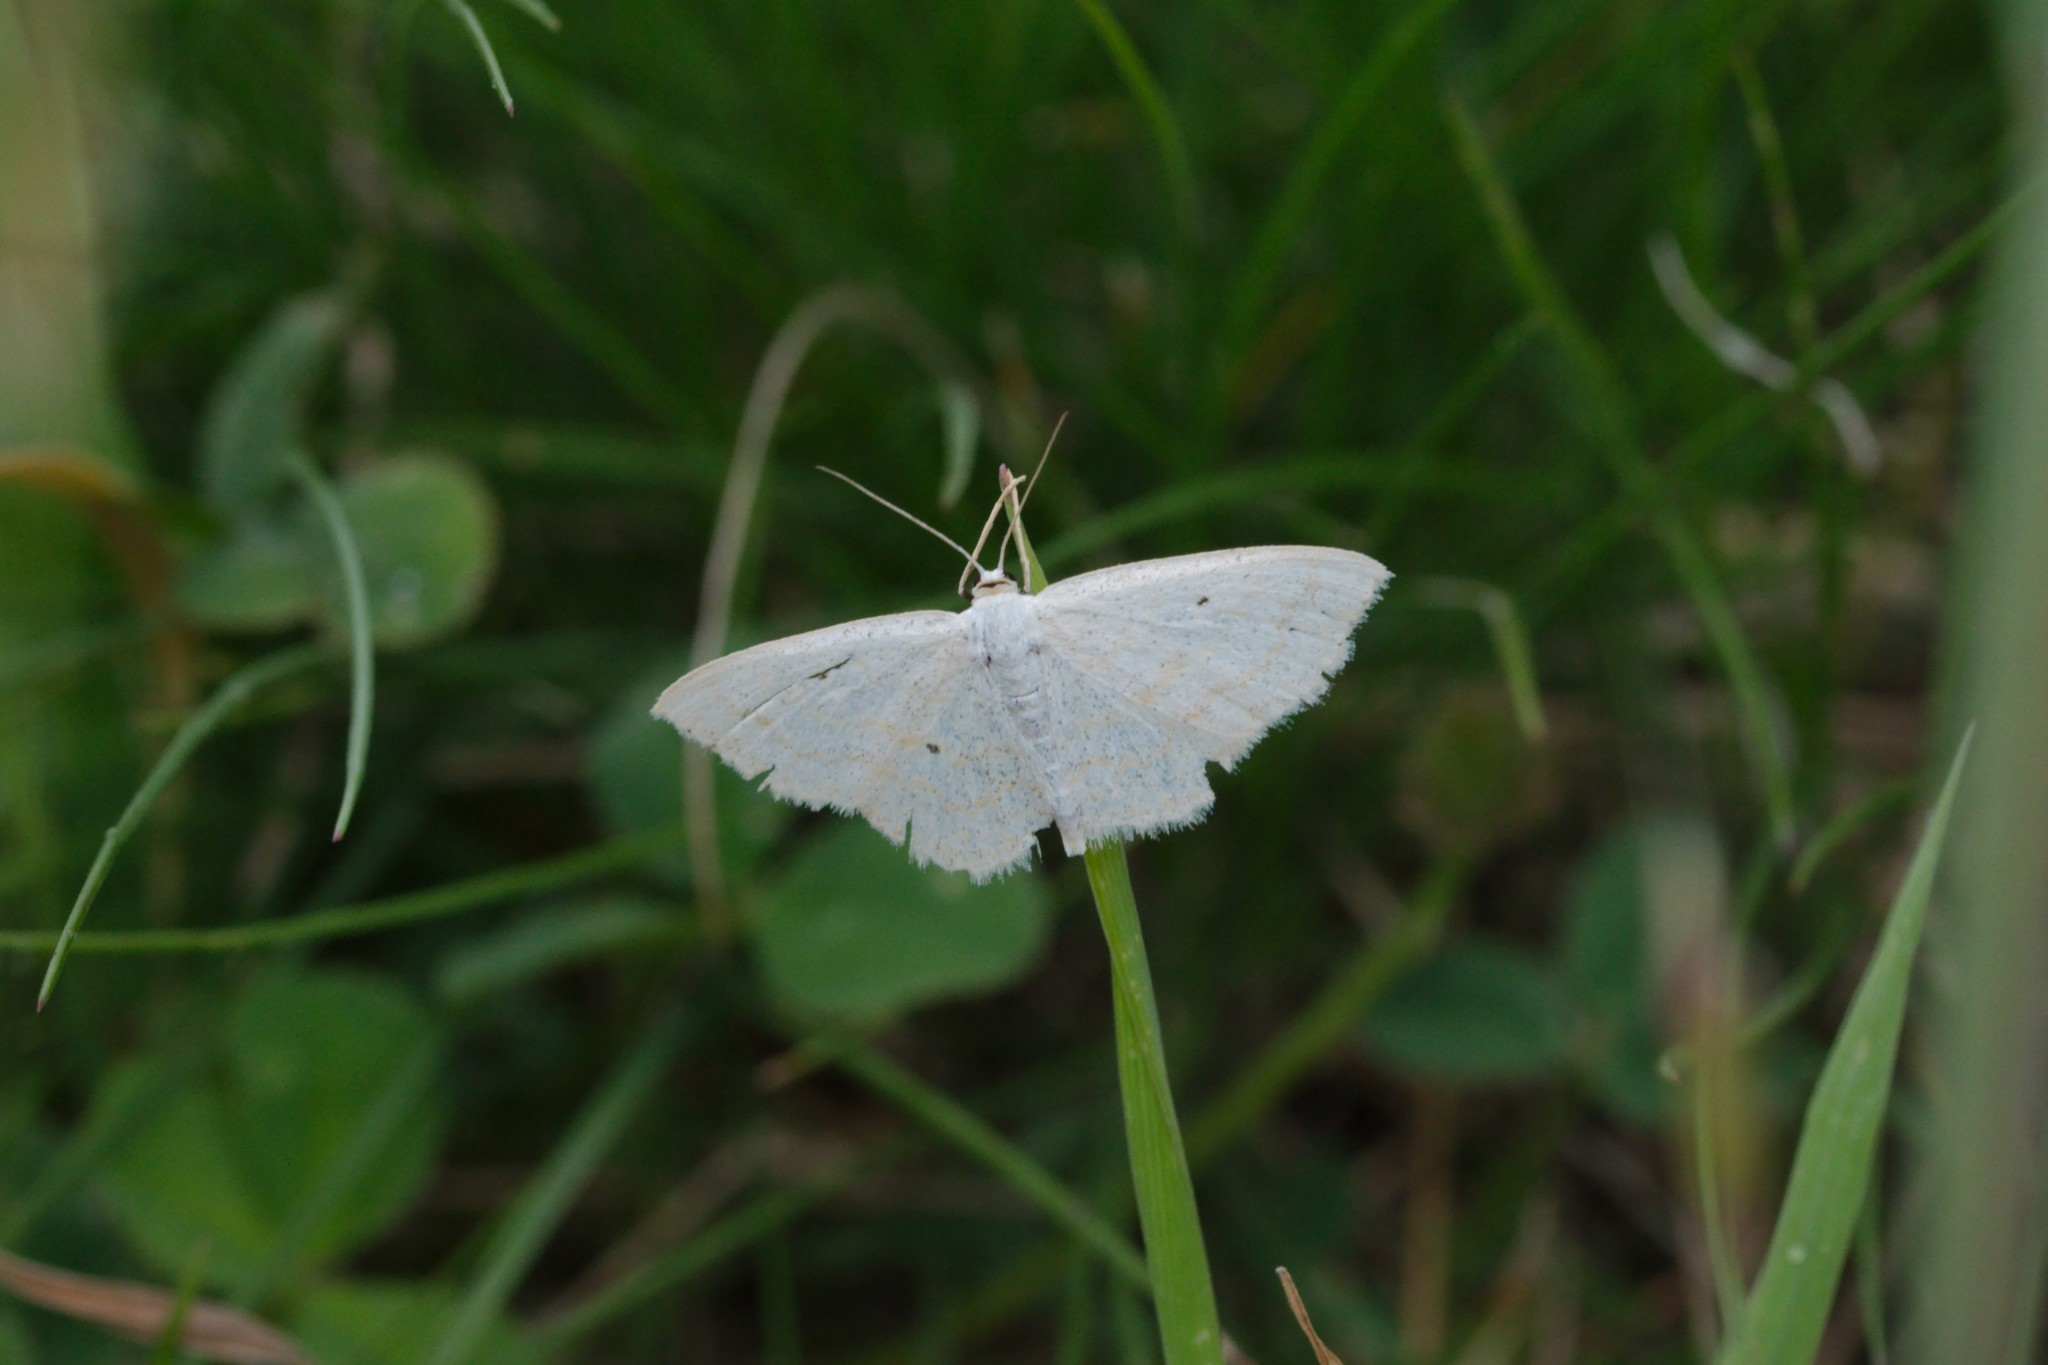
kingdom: Animalia
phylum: Arthropoda
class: Insecta
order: Lepidoptera
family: Geometridae
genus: Scopula
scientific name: Scopula immutata
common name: Lesser cream wave
